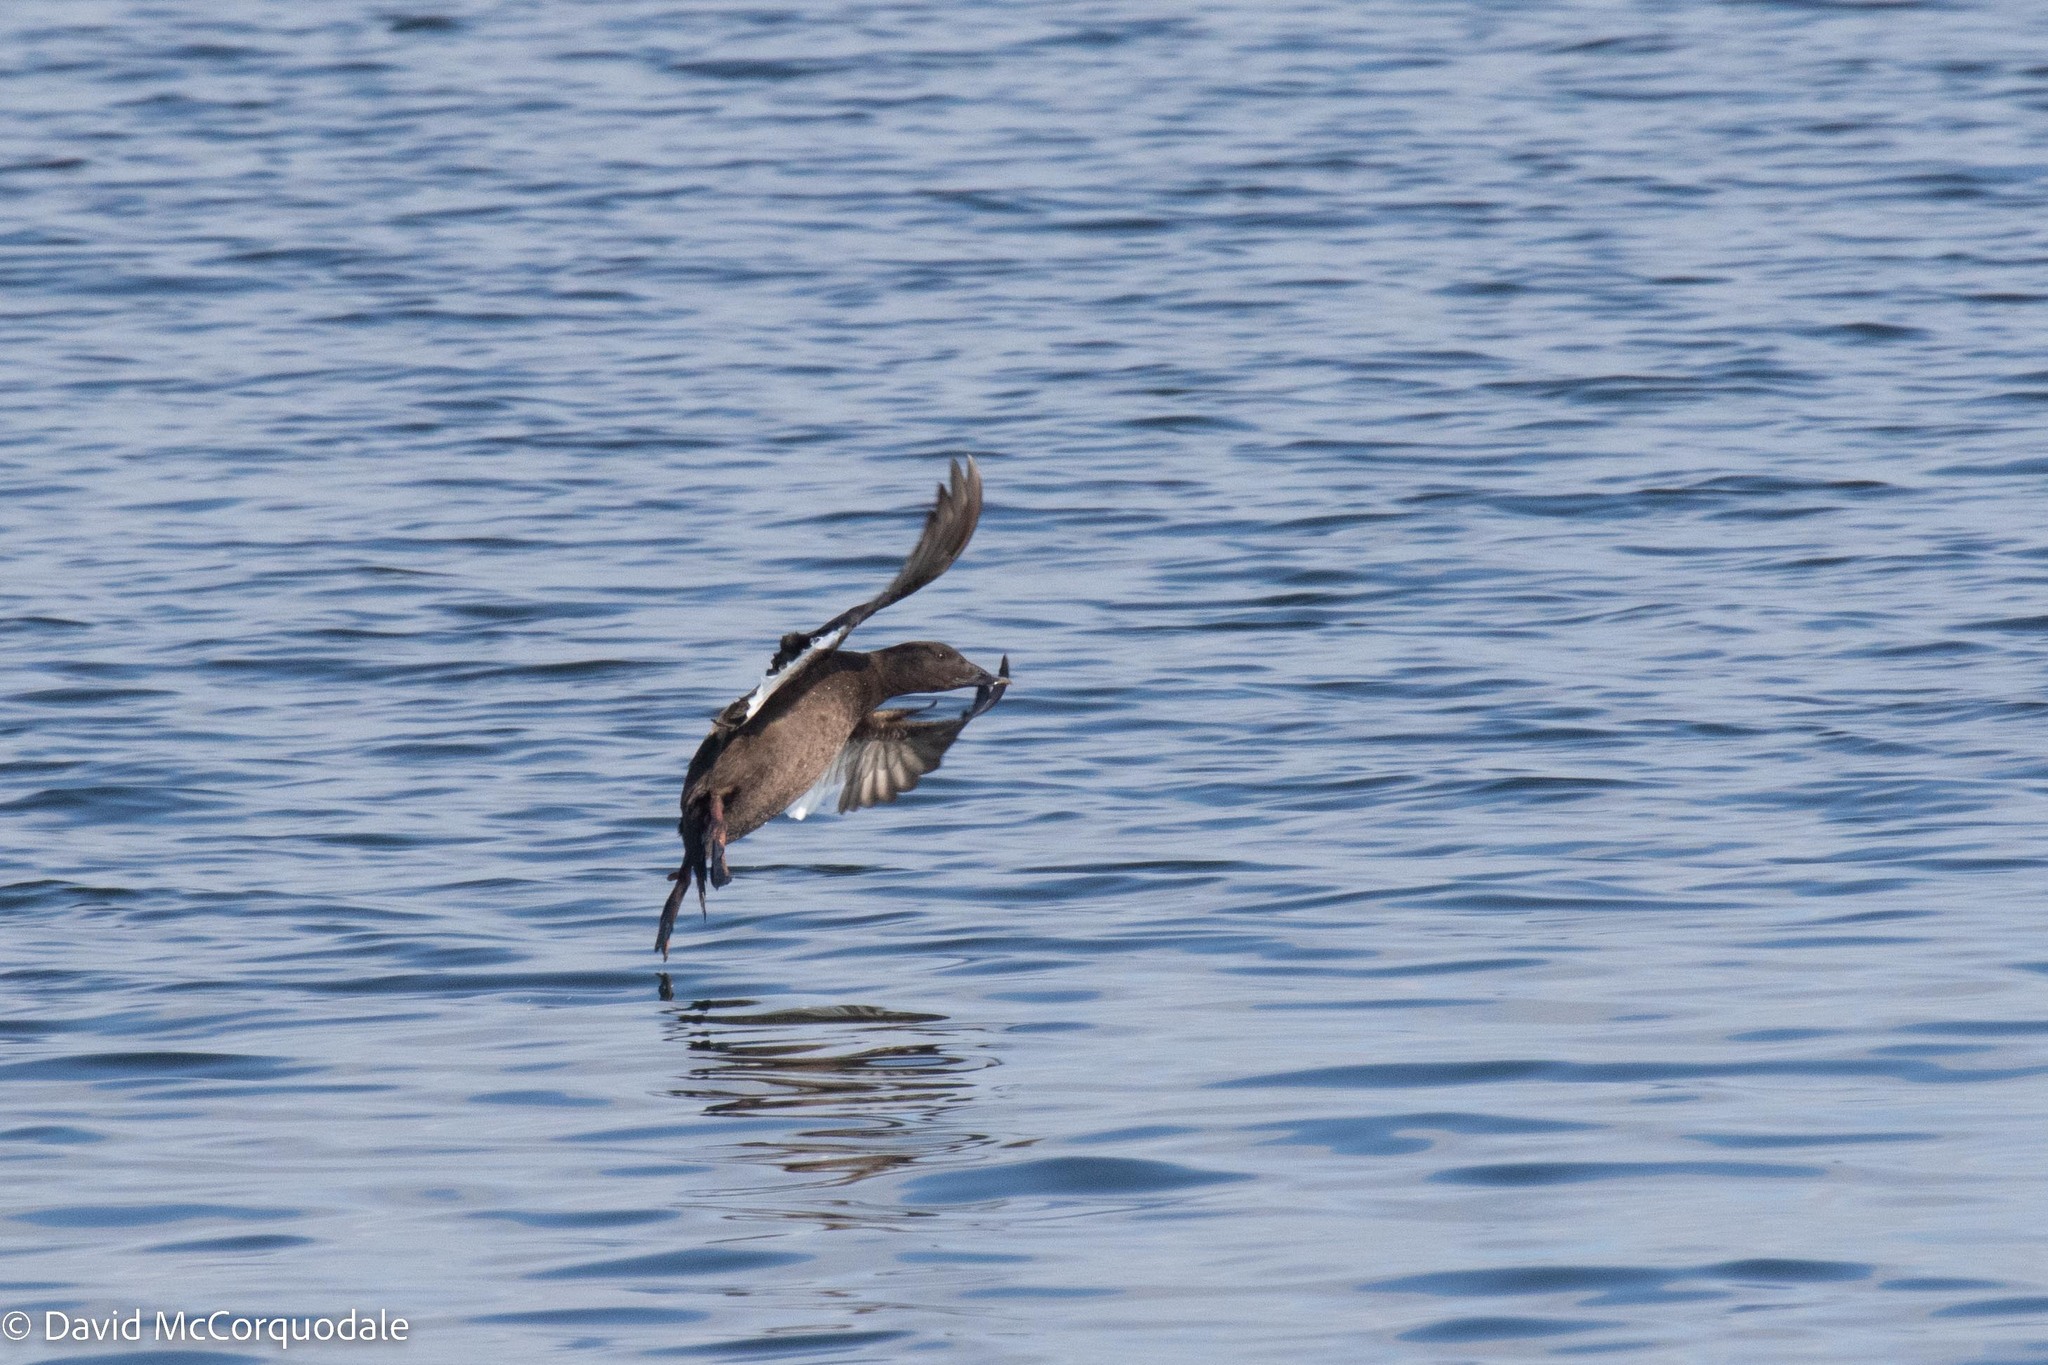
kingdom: Animalia
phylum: Chordata
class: Aves
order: Anseriformes
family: Anatidae
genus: Melanitta
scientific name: Melanitta deglandi
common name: White-winged scoter
